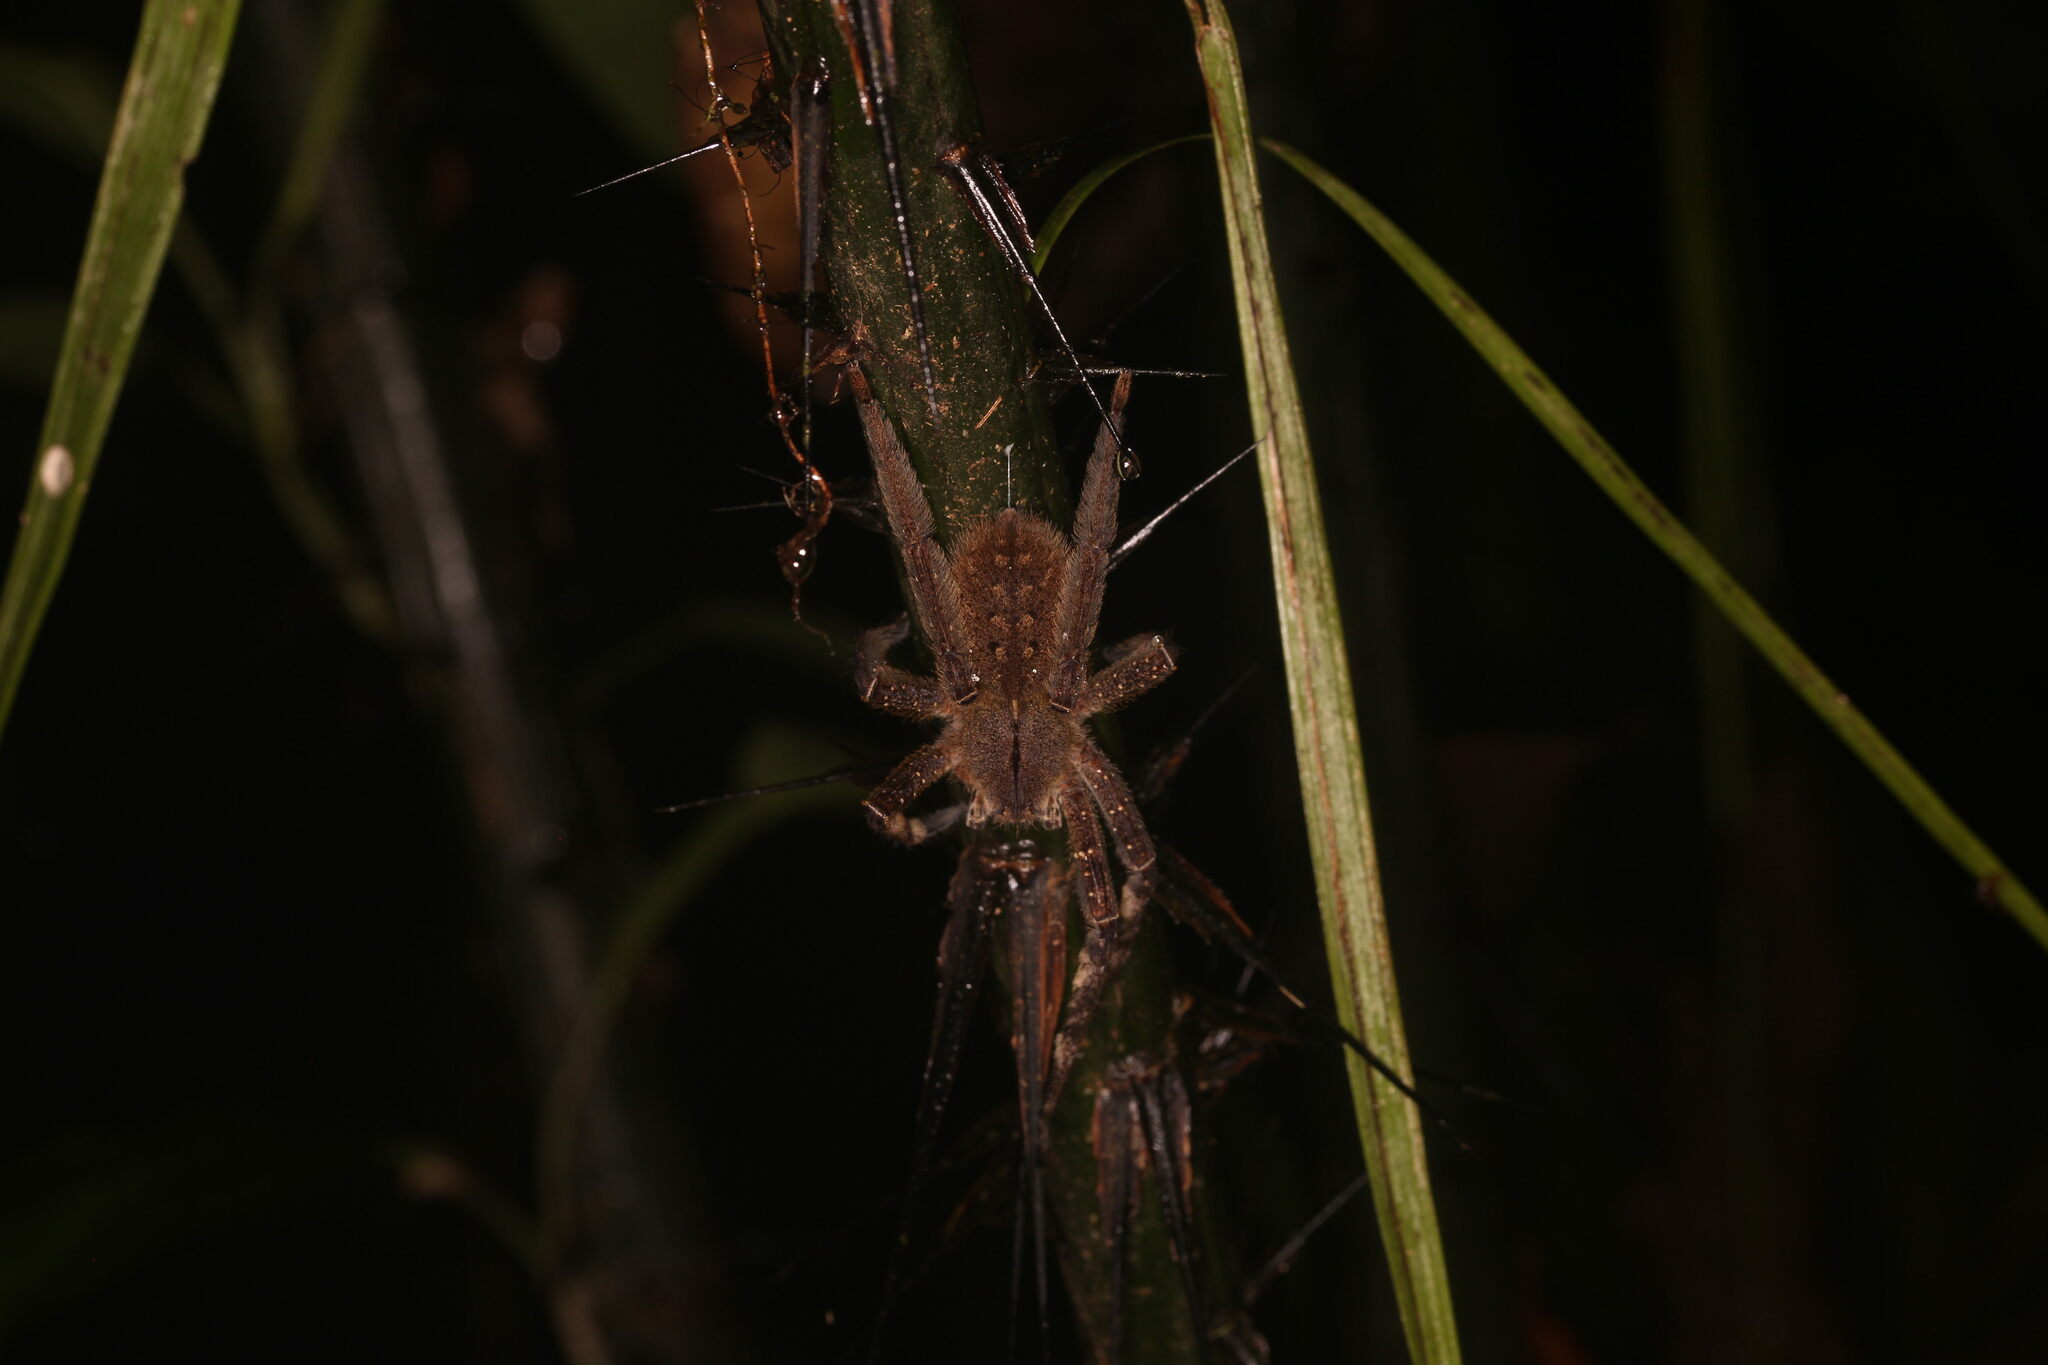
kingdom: Animalia
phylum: Arthropoda
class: Arachnida
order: Araneae
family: Ctenidae
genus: Phoneutria
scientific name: Phoneutria fera
